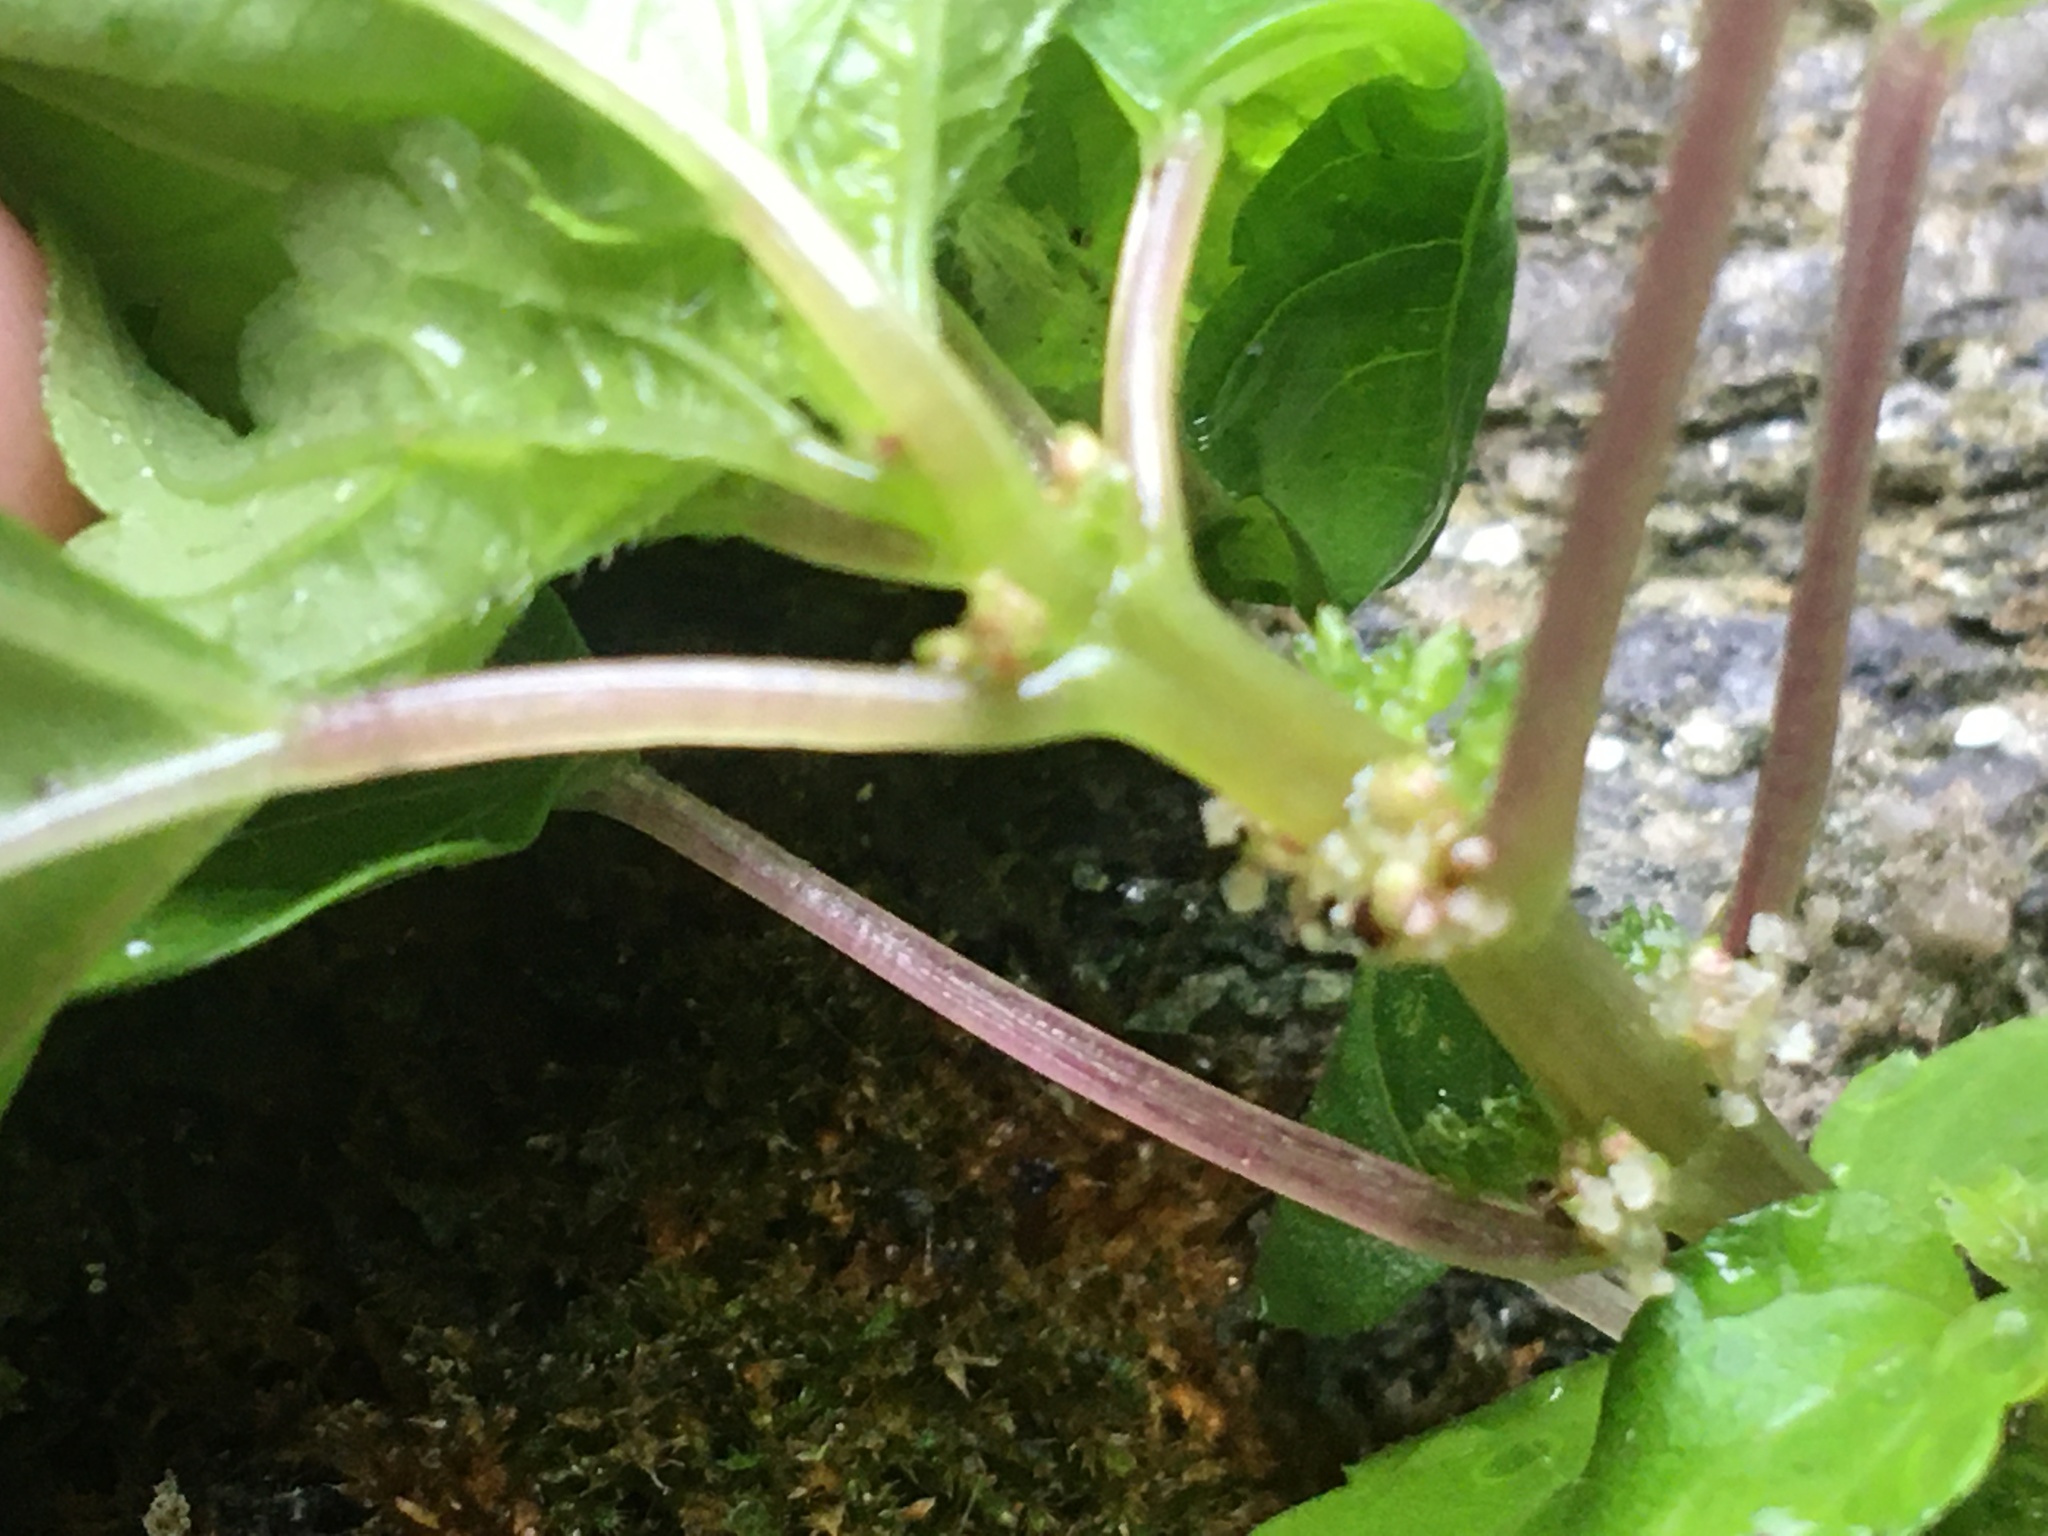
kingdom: Plantae
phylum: Tracheophyta
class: Magnoliopsida
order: Rosales
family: Urticaceae
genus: Pilea
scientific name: Pilea pumila
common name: Clearweed
